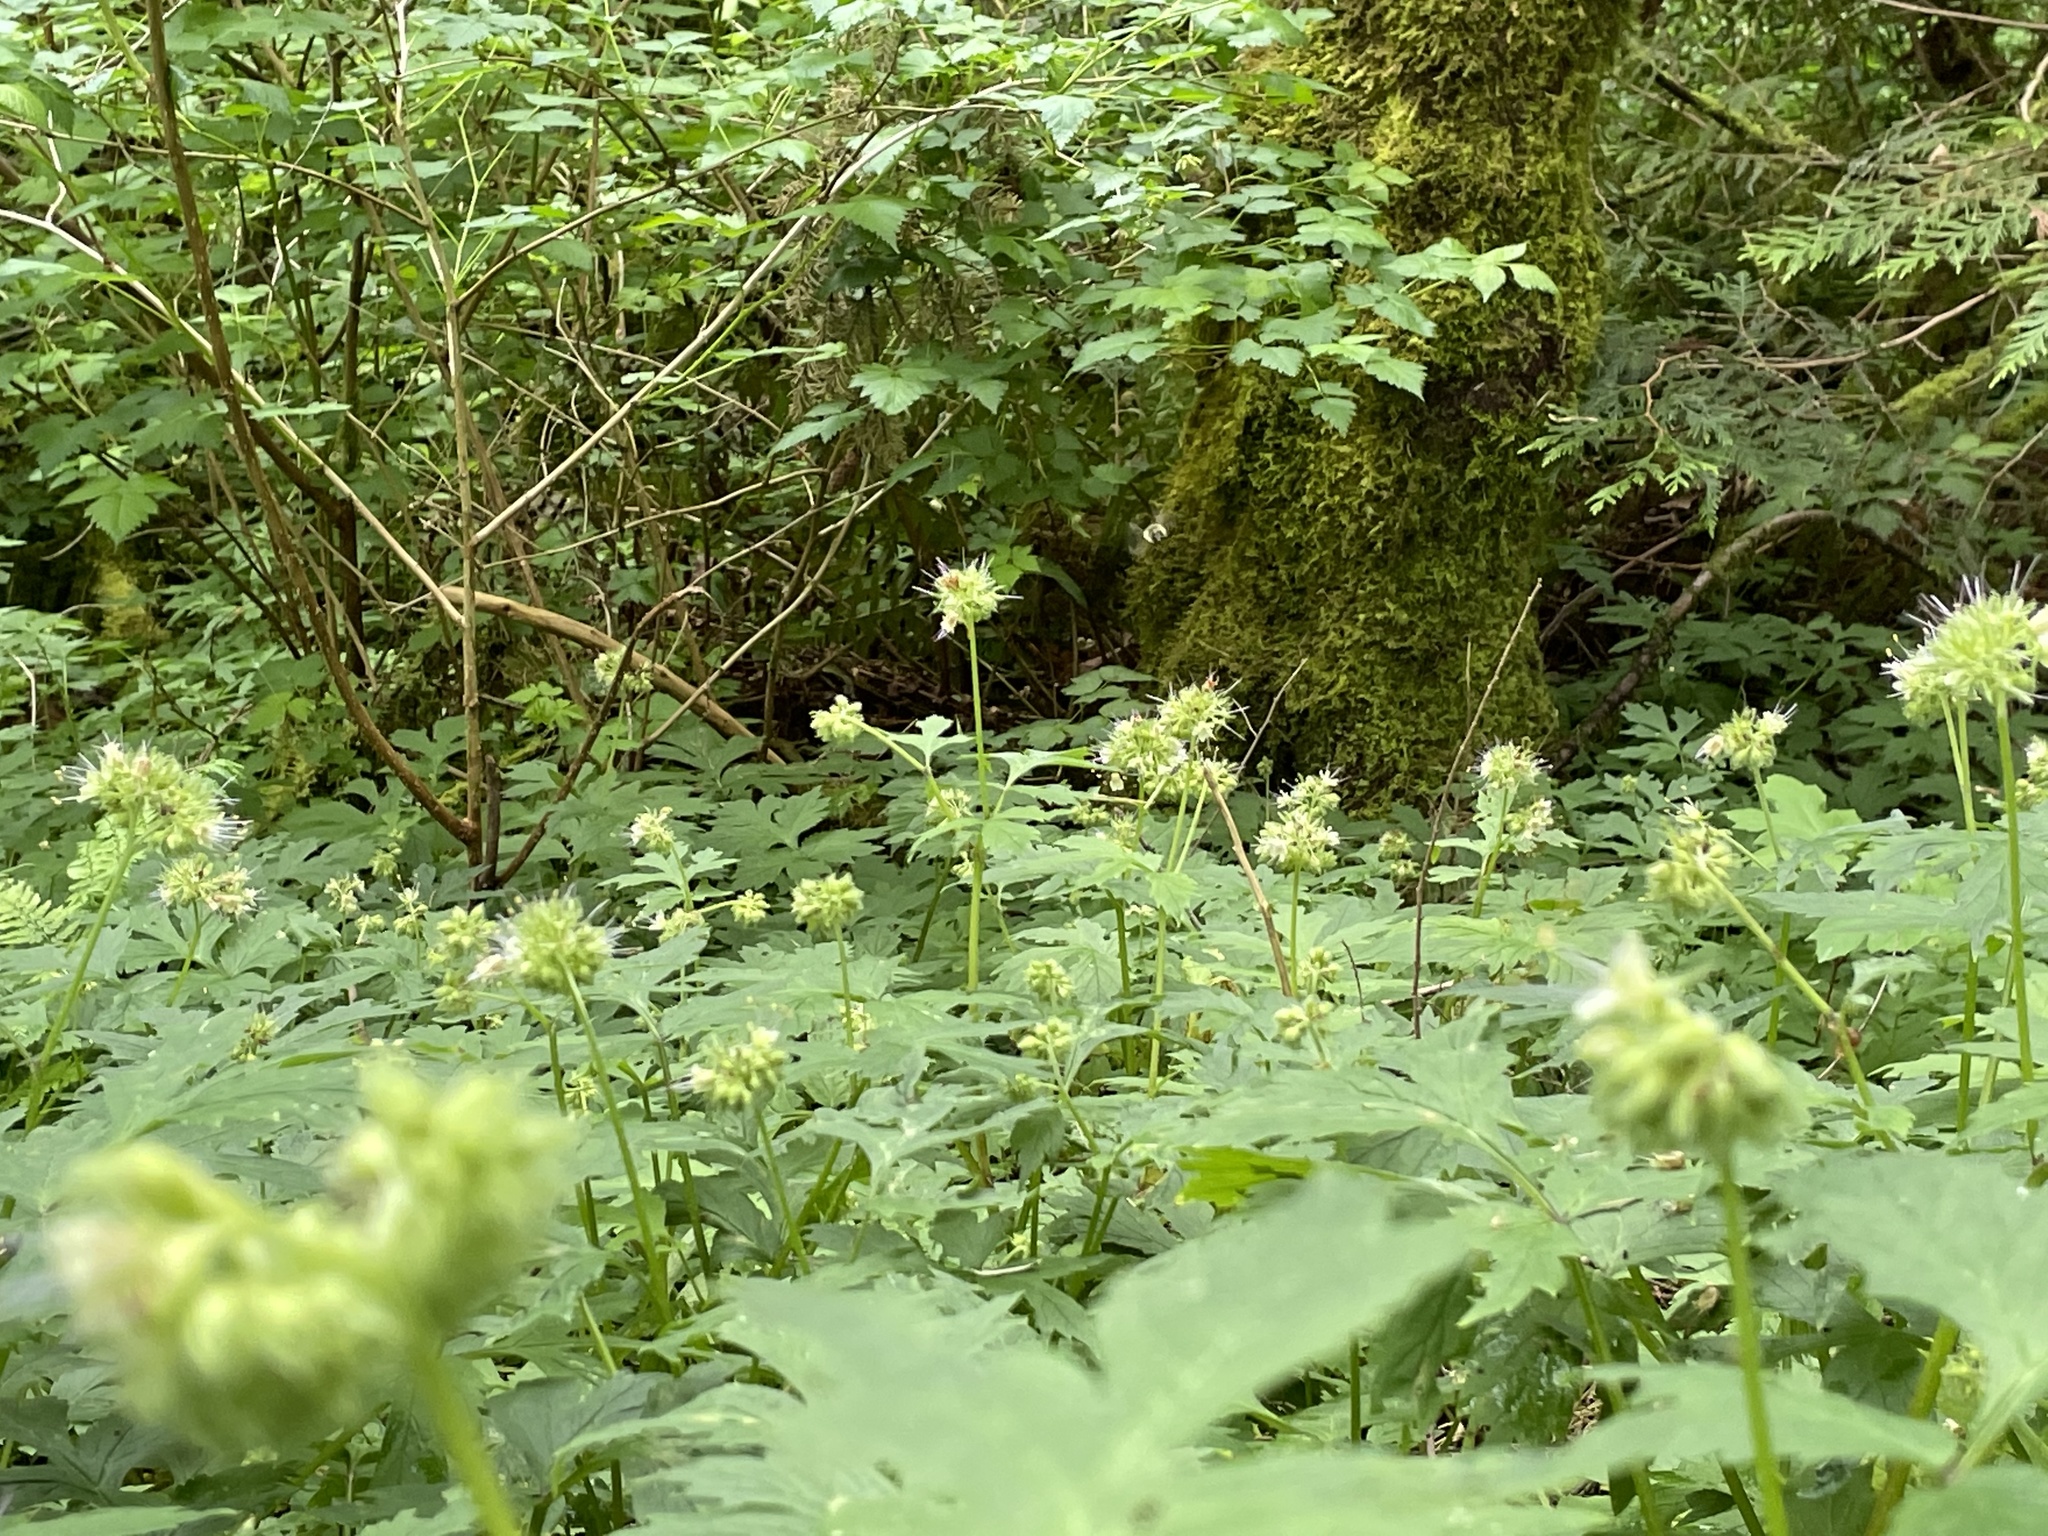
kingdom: Plantae
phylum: Tracheophyta
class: Magnoliopsida
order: Boraginales
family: Hydrophyllaceae
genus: Hydrophyllum
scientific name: Hydrophyllum tenuipes
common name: Pacific waterleaf
